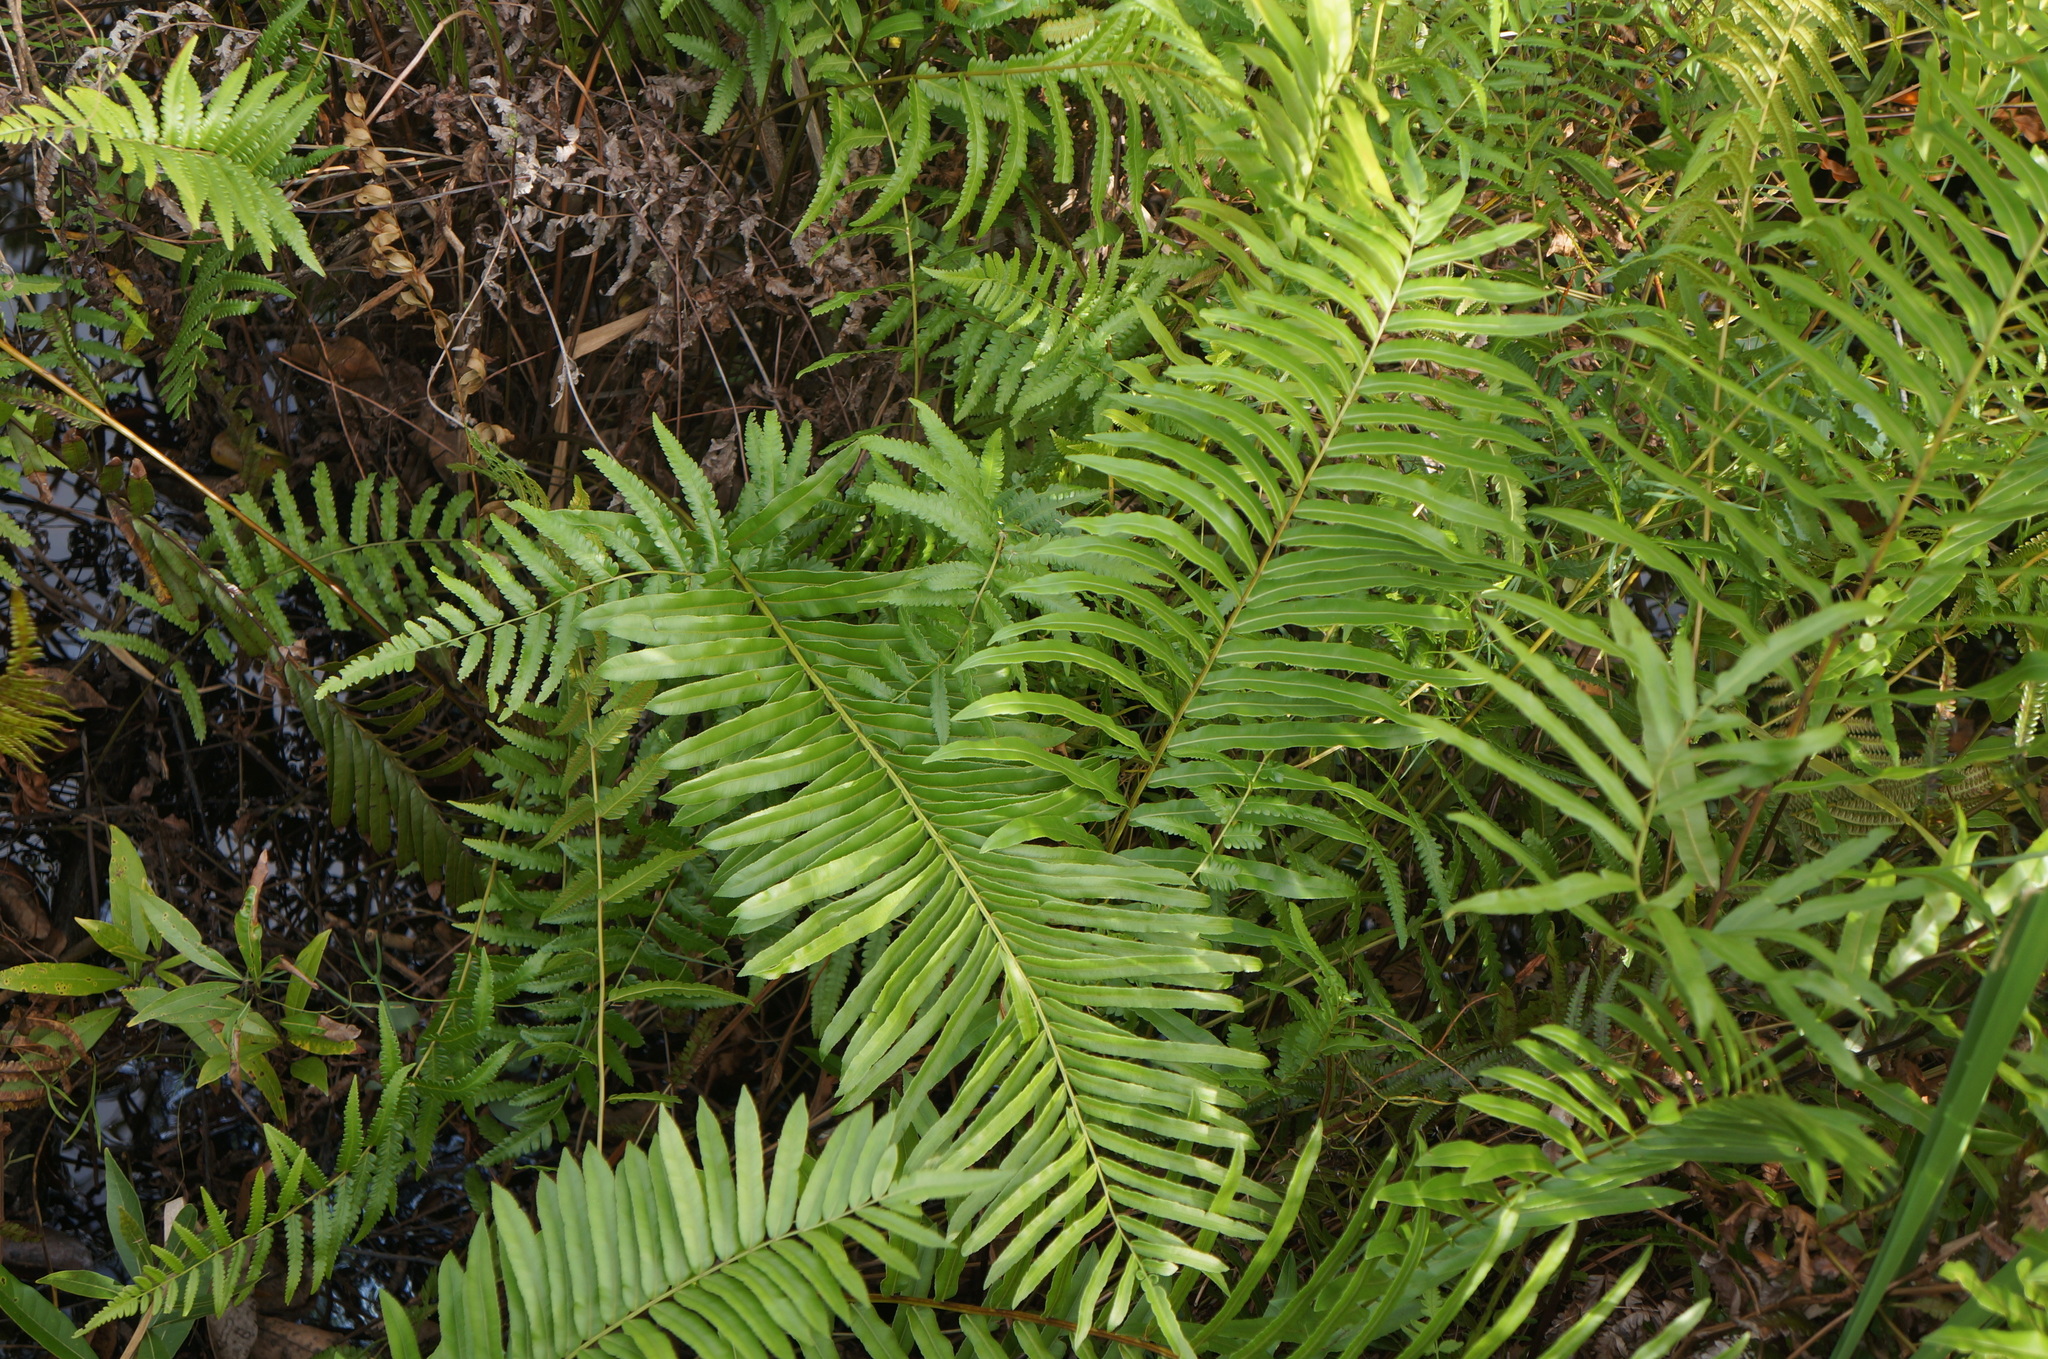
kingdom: Plantae
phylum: Tracheophyta
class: Polypodiopsida
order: Polypodiales
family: Blechnaceae
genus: Telmatoblechnum
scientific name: Telmatoblechnum serrulatum
